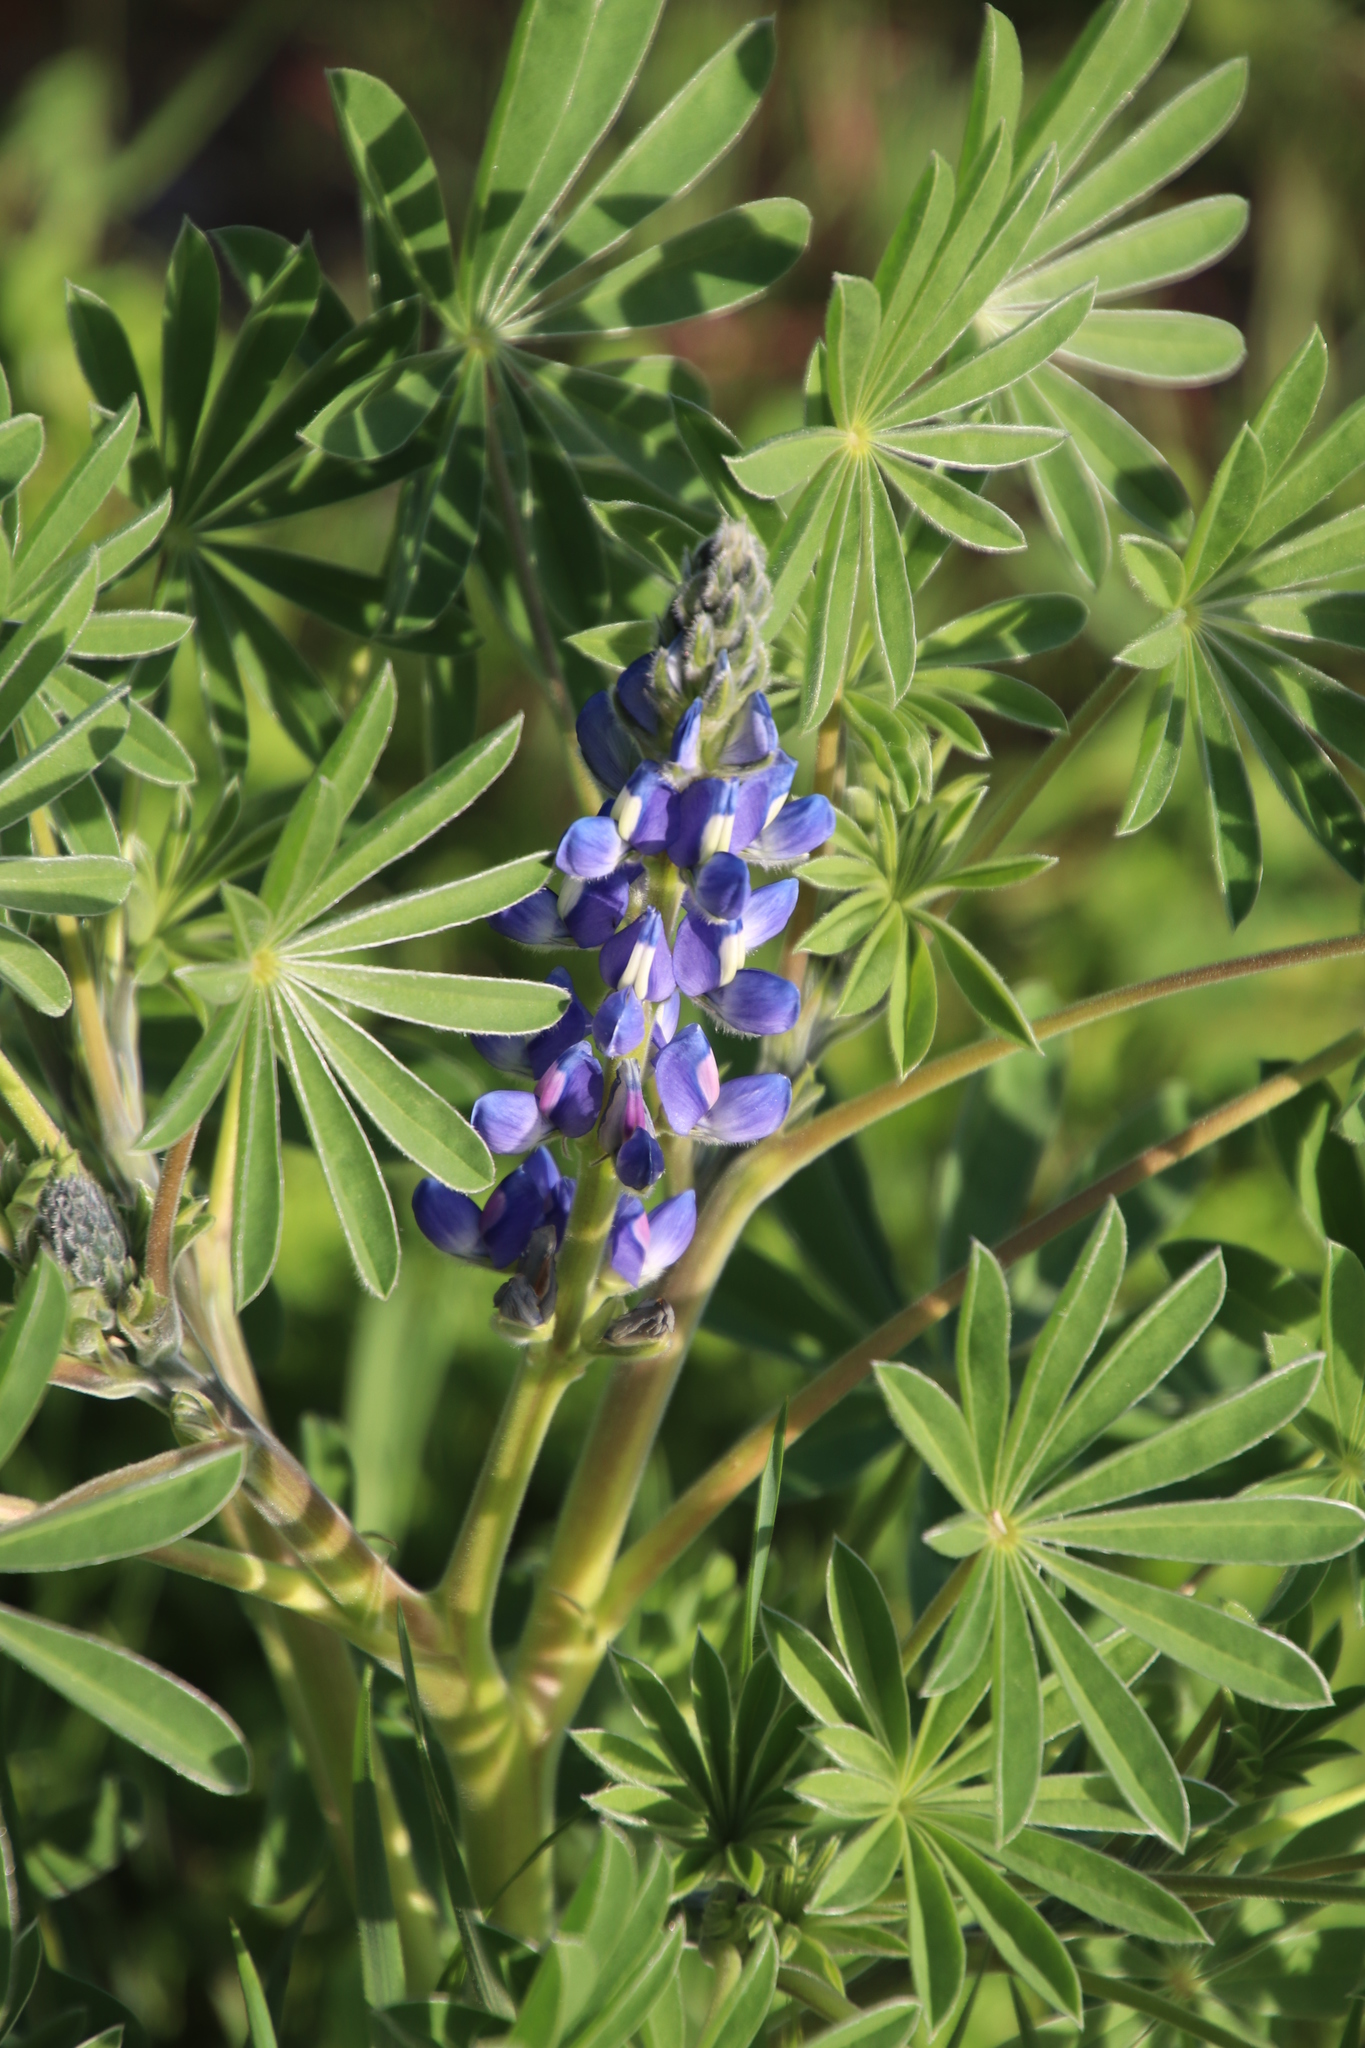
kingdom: Plantae
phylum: Tracheophyta
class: Magnoliopsida
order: Fabales
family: Fabaceae
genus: Lupinus
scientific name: Lupinus cosentinii
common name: Hairy blue lupin
